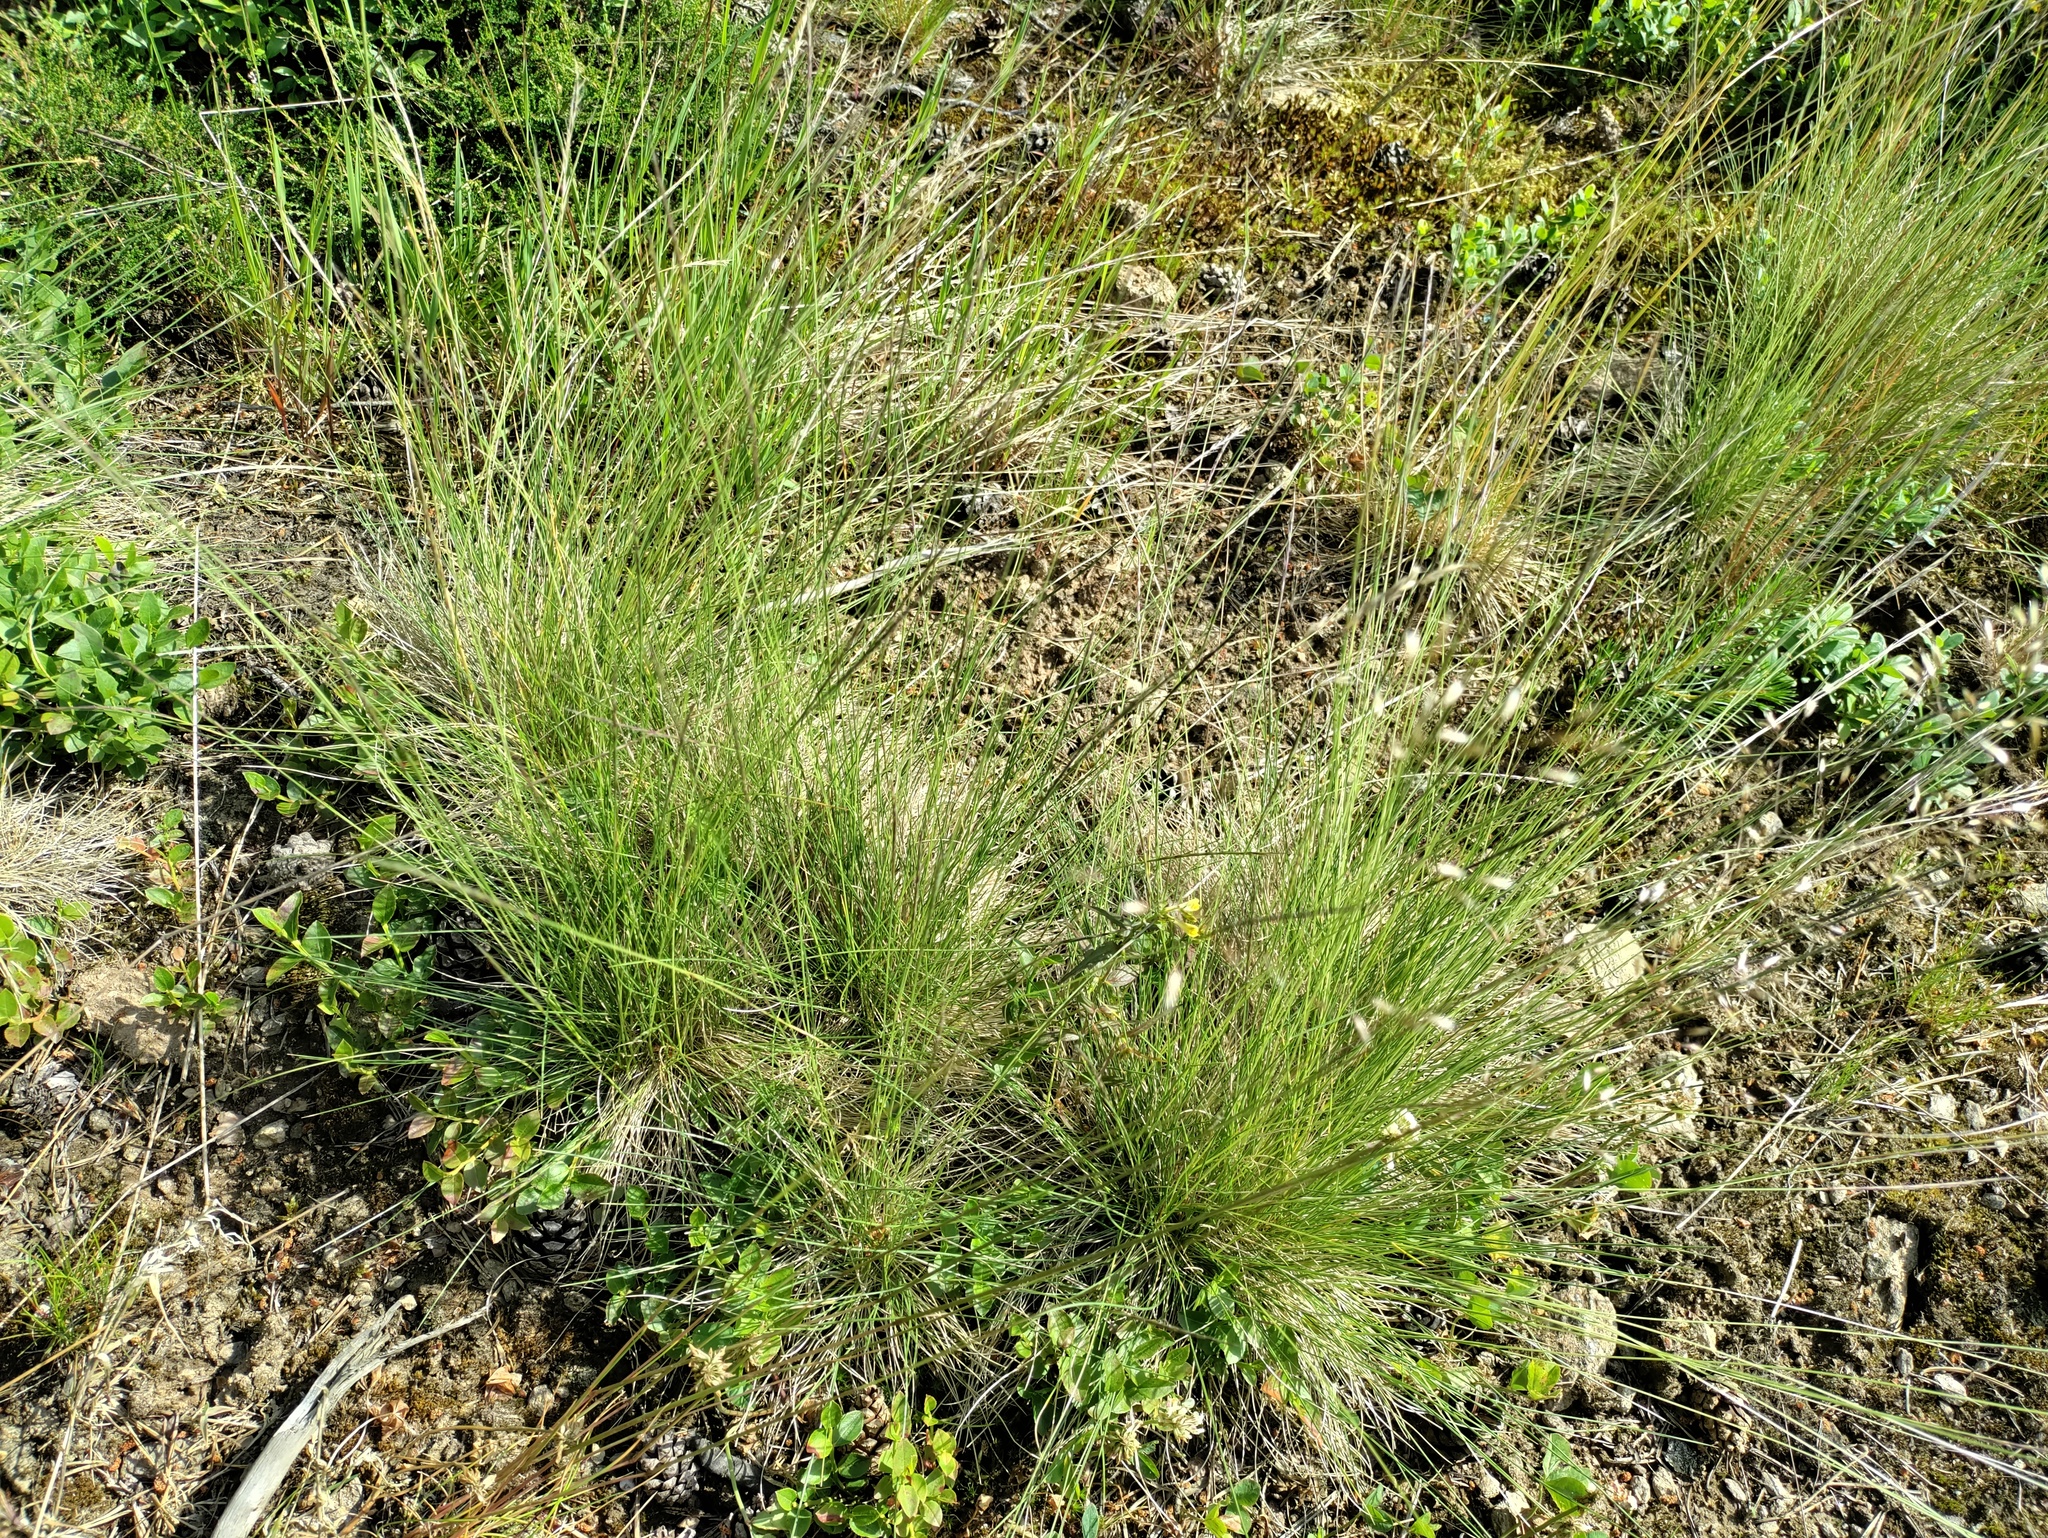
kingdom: Plantae
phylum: Tracheophyta
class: Liliopsida
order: Poales
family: Poaceae
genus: Nardus
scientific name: Nardus stricta
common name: Mat-grass
